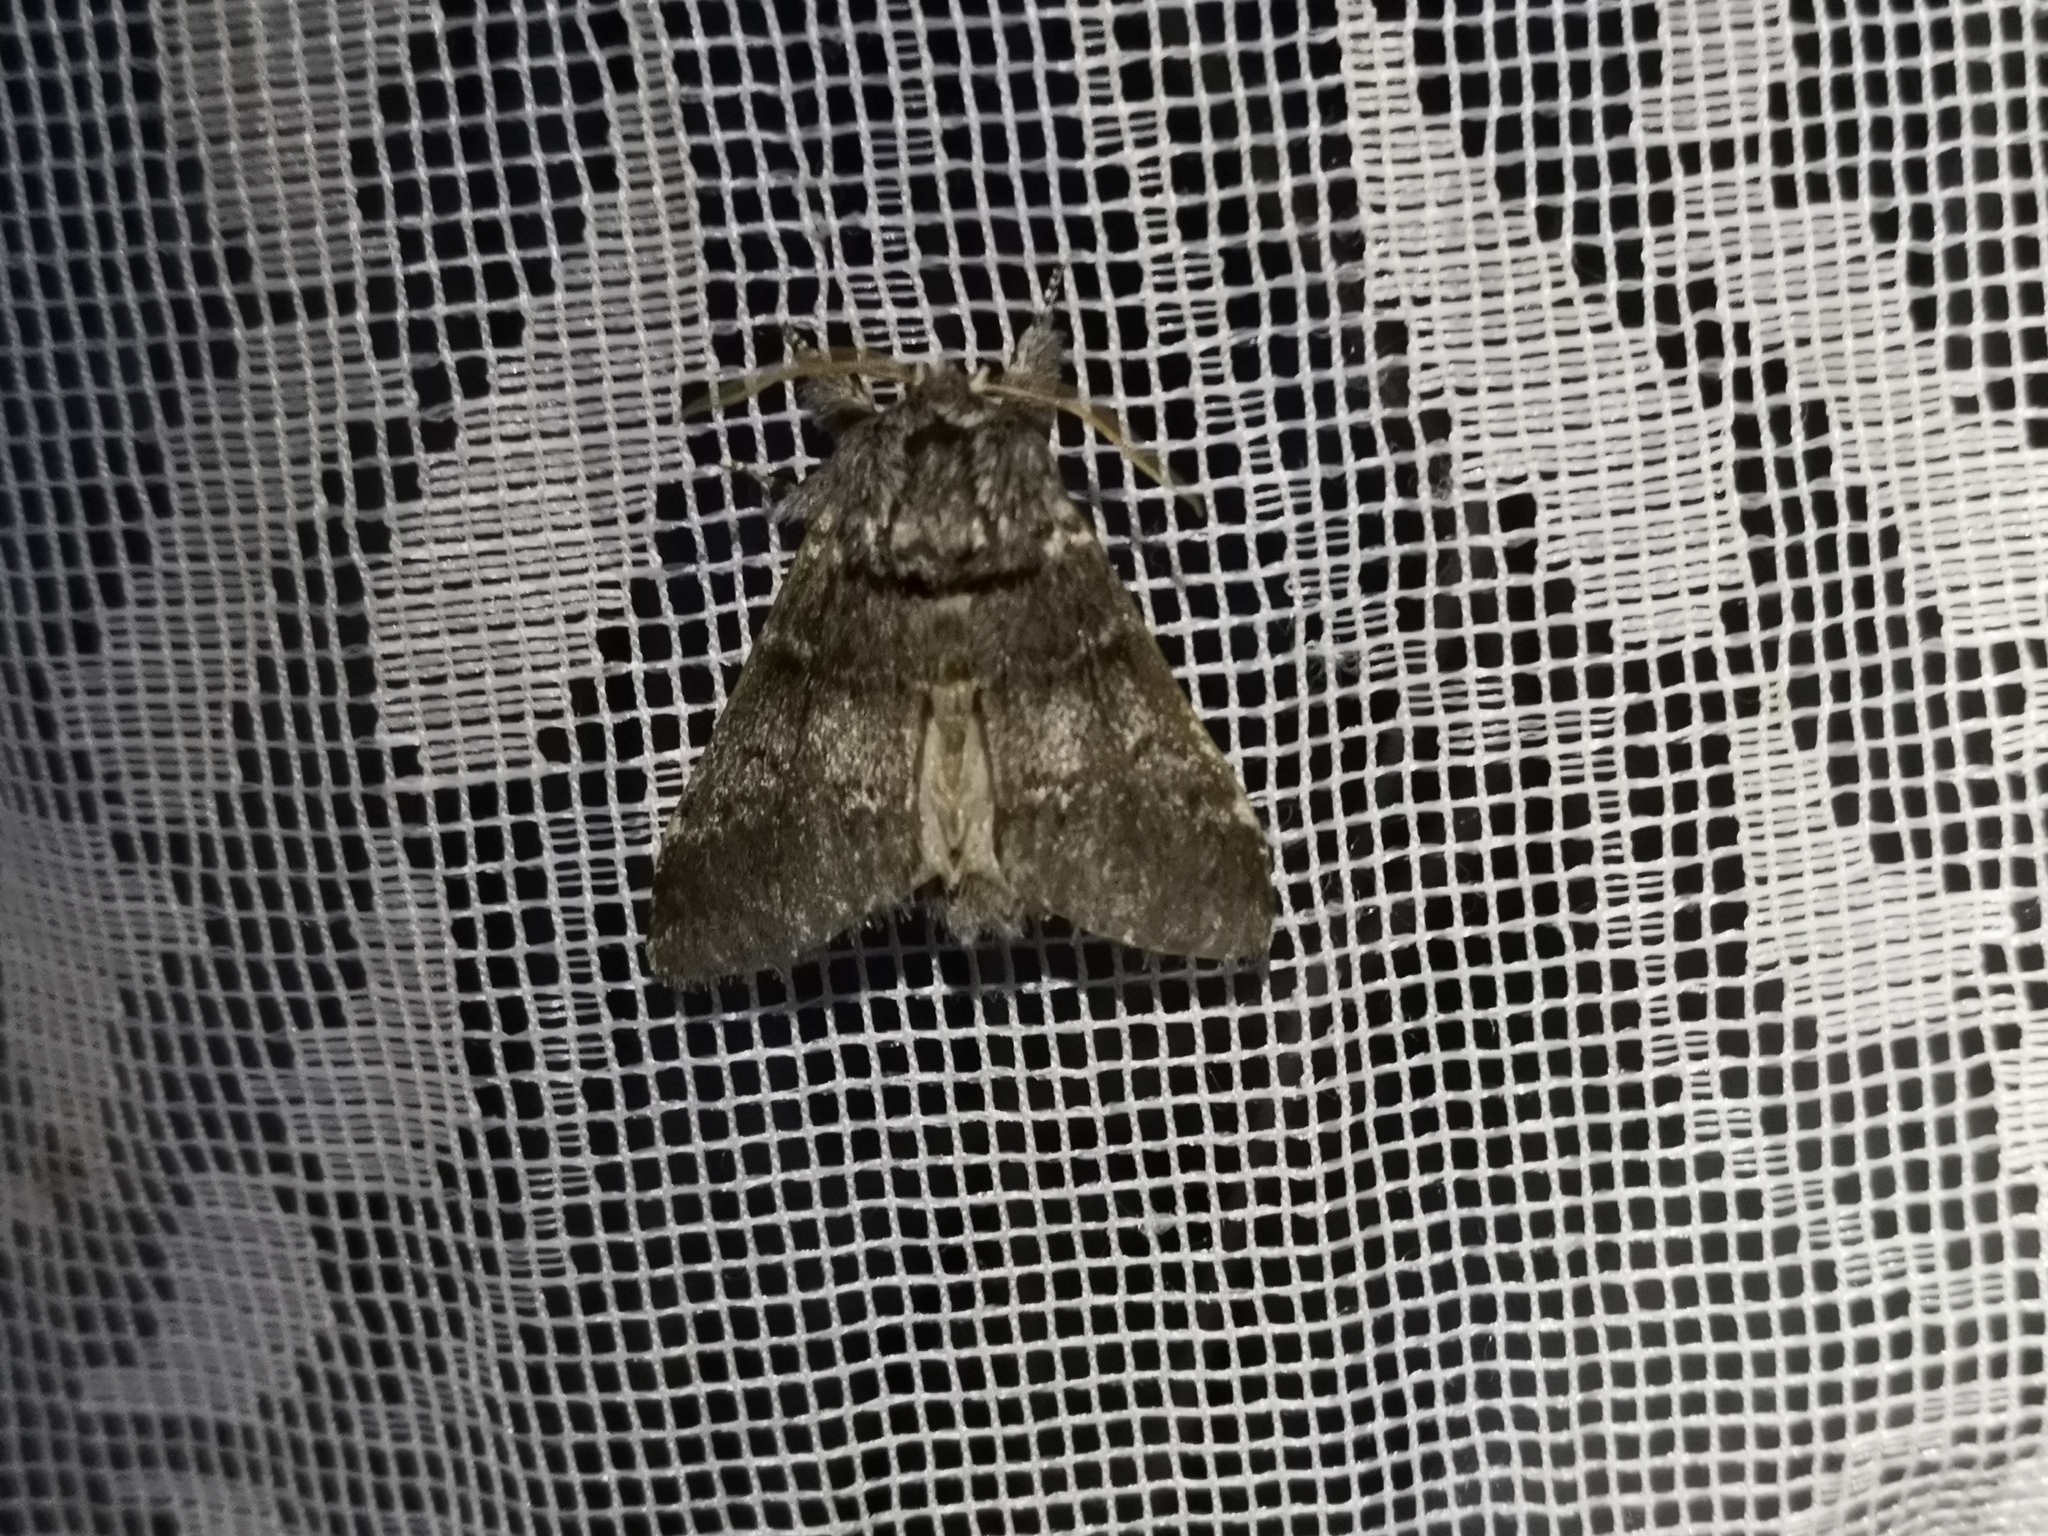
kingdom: Animalia
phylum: Arthropoda
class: Insecta
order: Lepidoptera
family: Notodontidae
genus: Drymonia
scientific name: Drymonia ruficornis
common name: Lunar marbled brown
